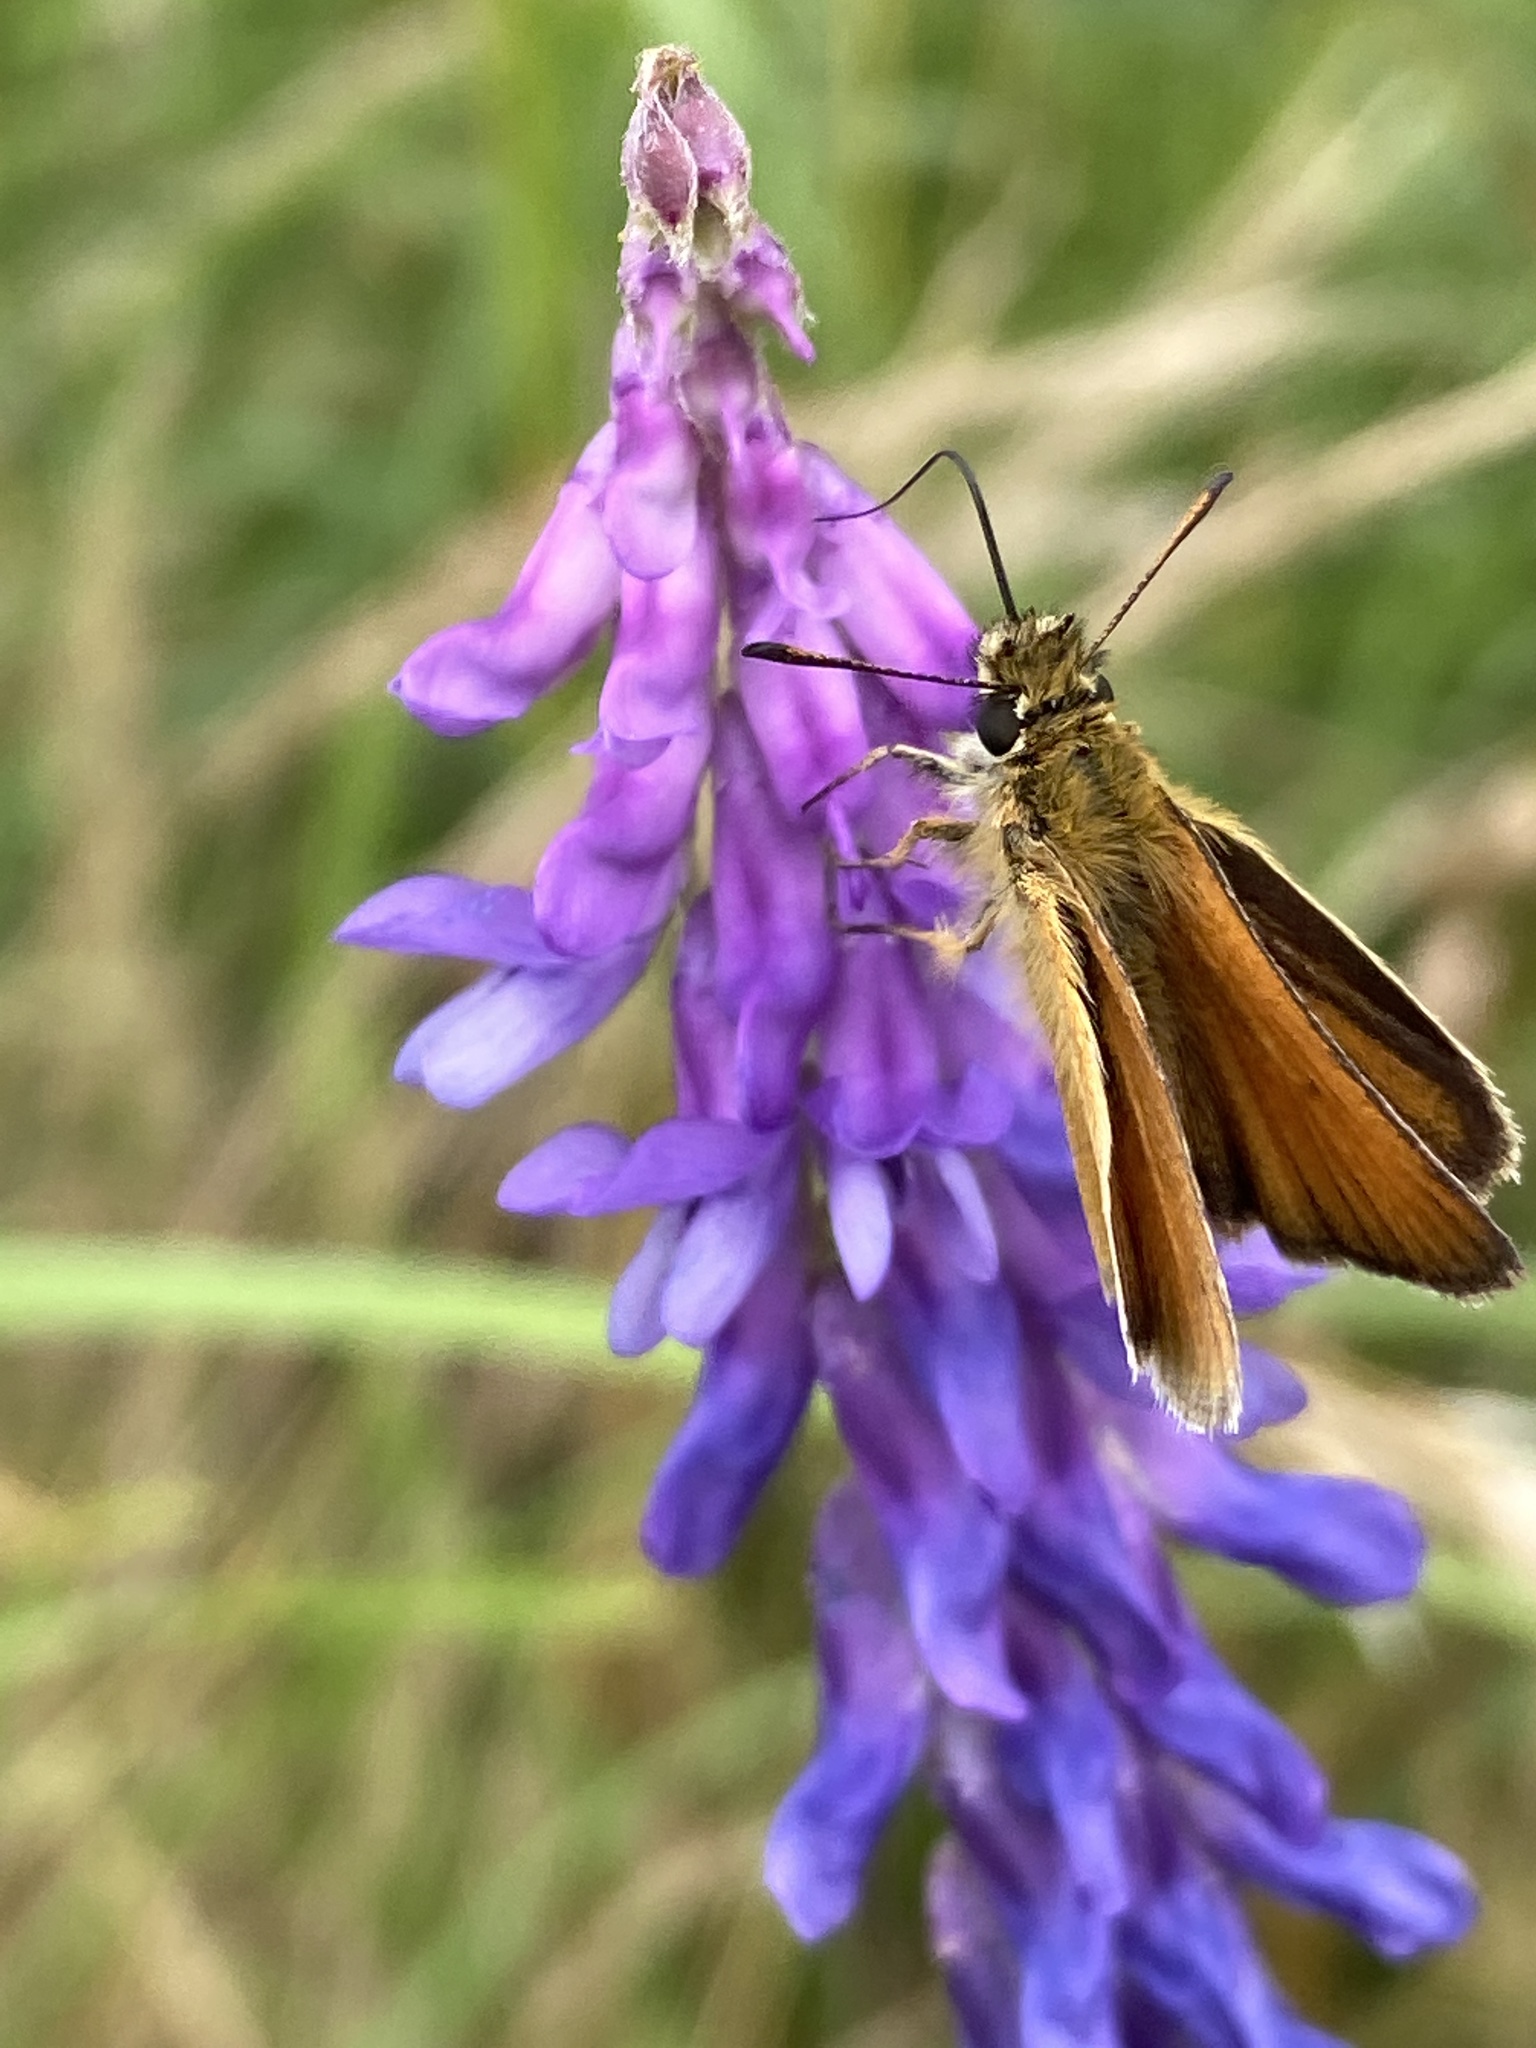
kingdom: Animalia
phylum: Arthropoda
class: Insecta
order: Lepidoptera
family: Hesperiidae
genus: Thymelicus
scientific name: Thymelicus lineola
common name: Essex skipper
